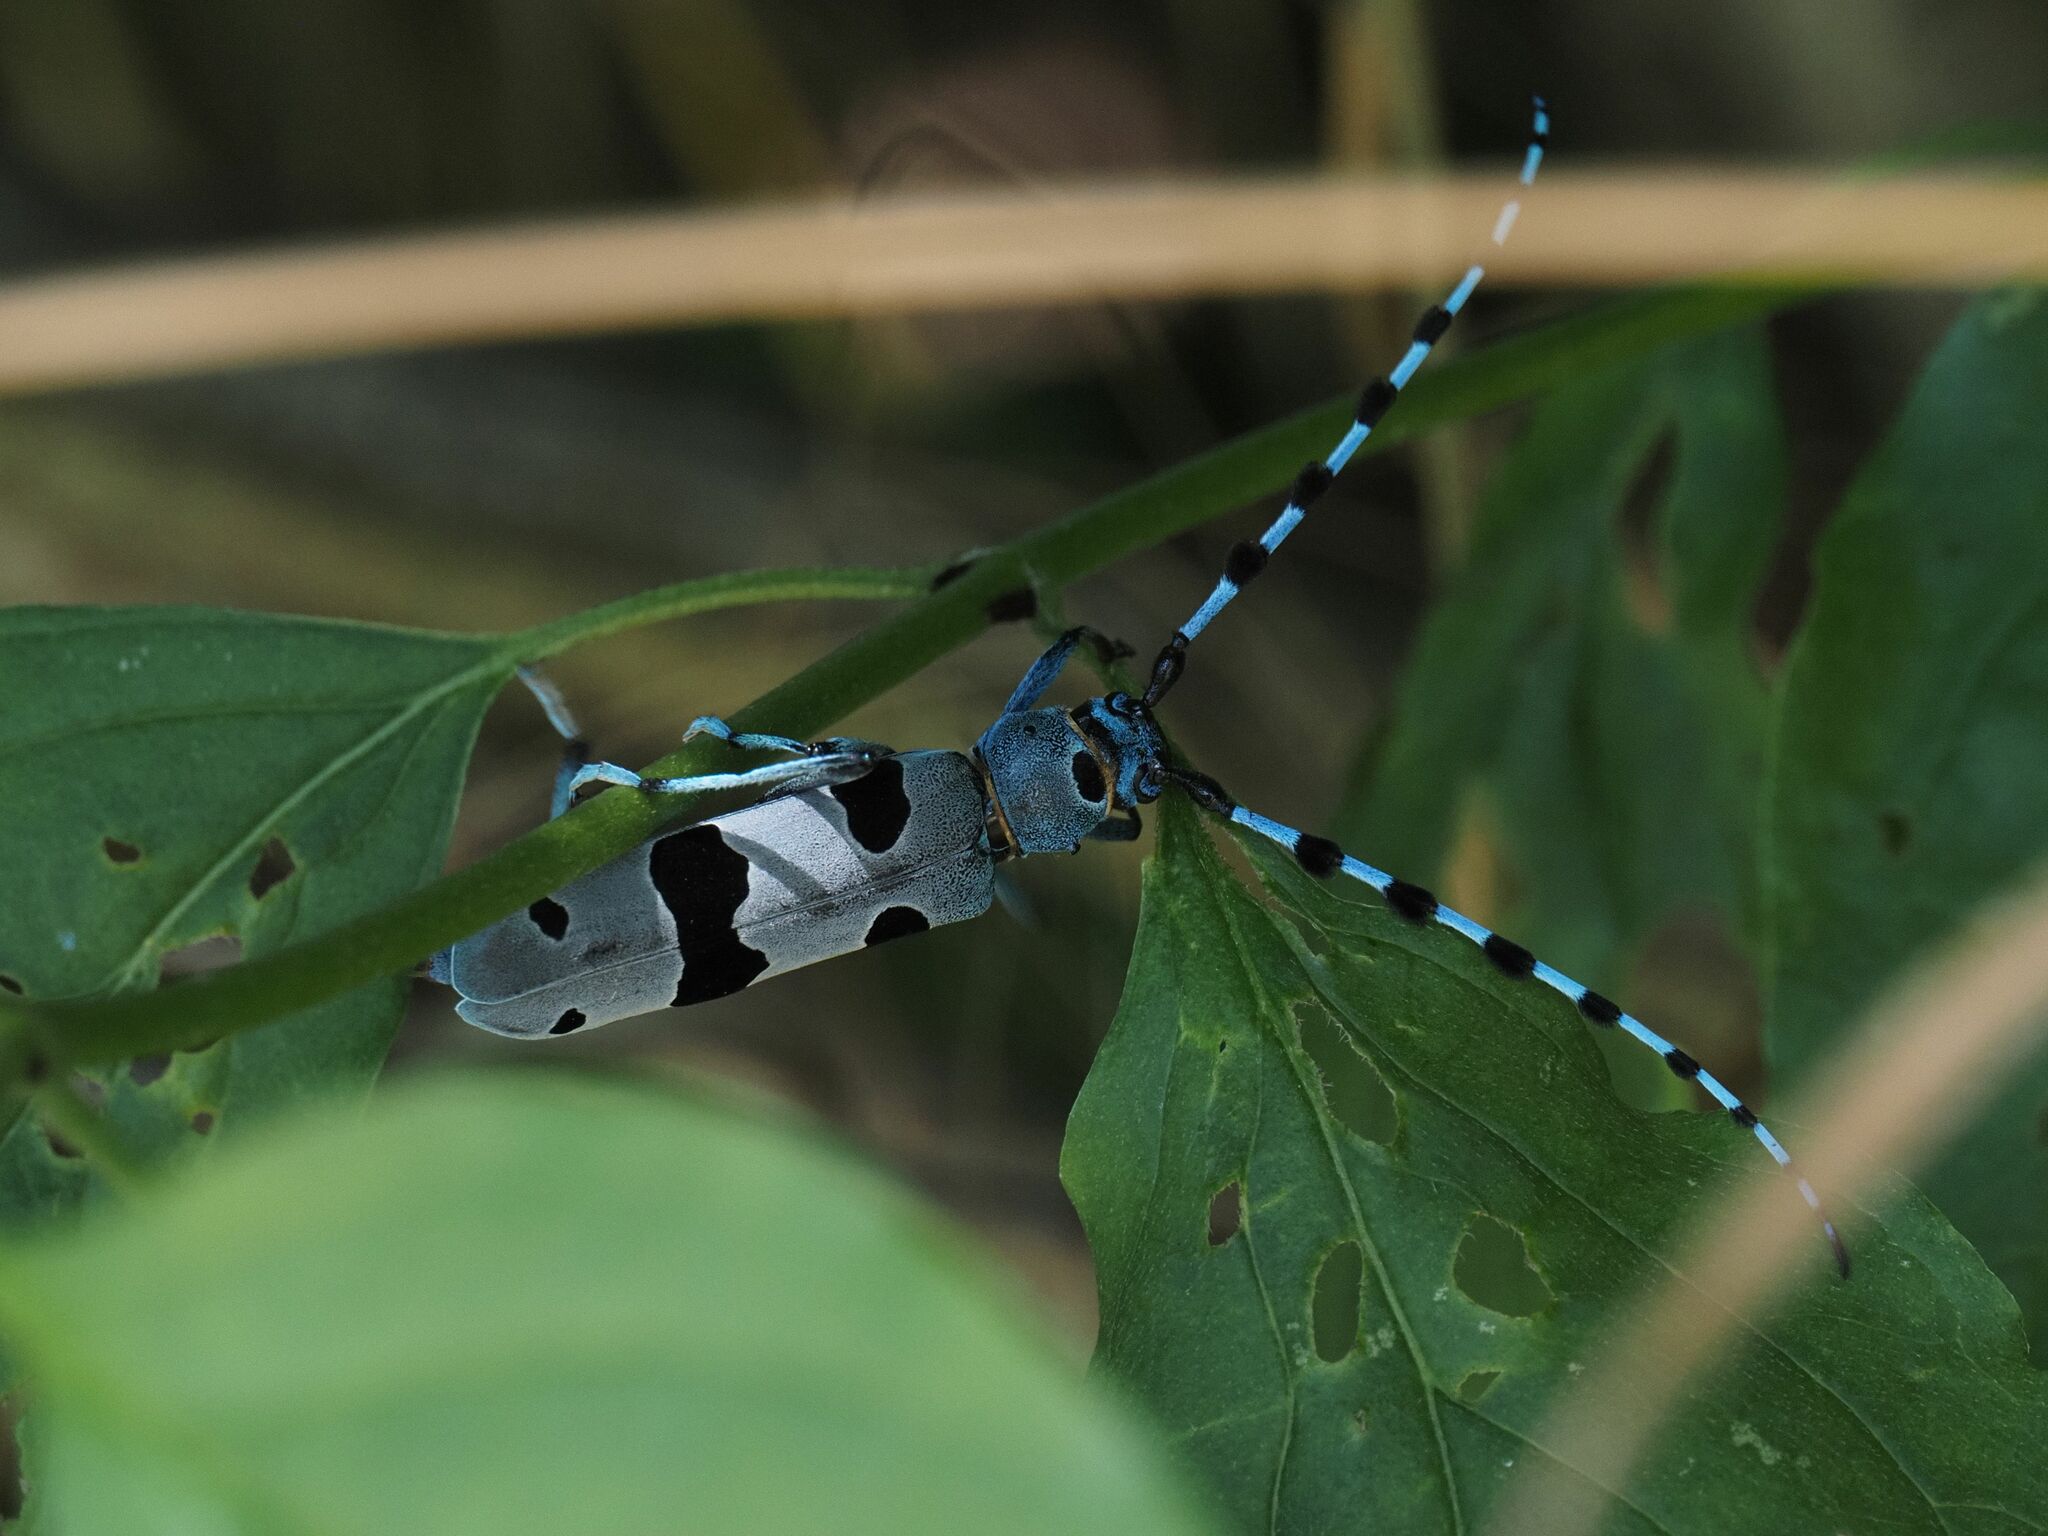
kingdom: Animalia
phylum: Arthropoda
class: Insecta
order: Coleoptera
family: Cerambycidae
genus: Rosalia
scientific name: Rosalia alpina
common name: Rosalia longicorn
